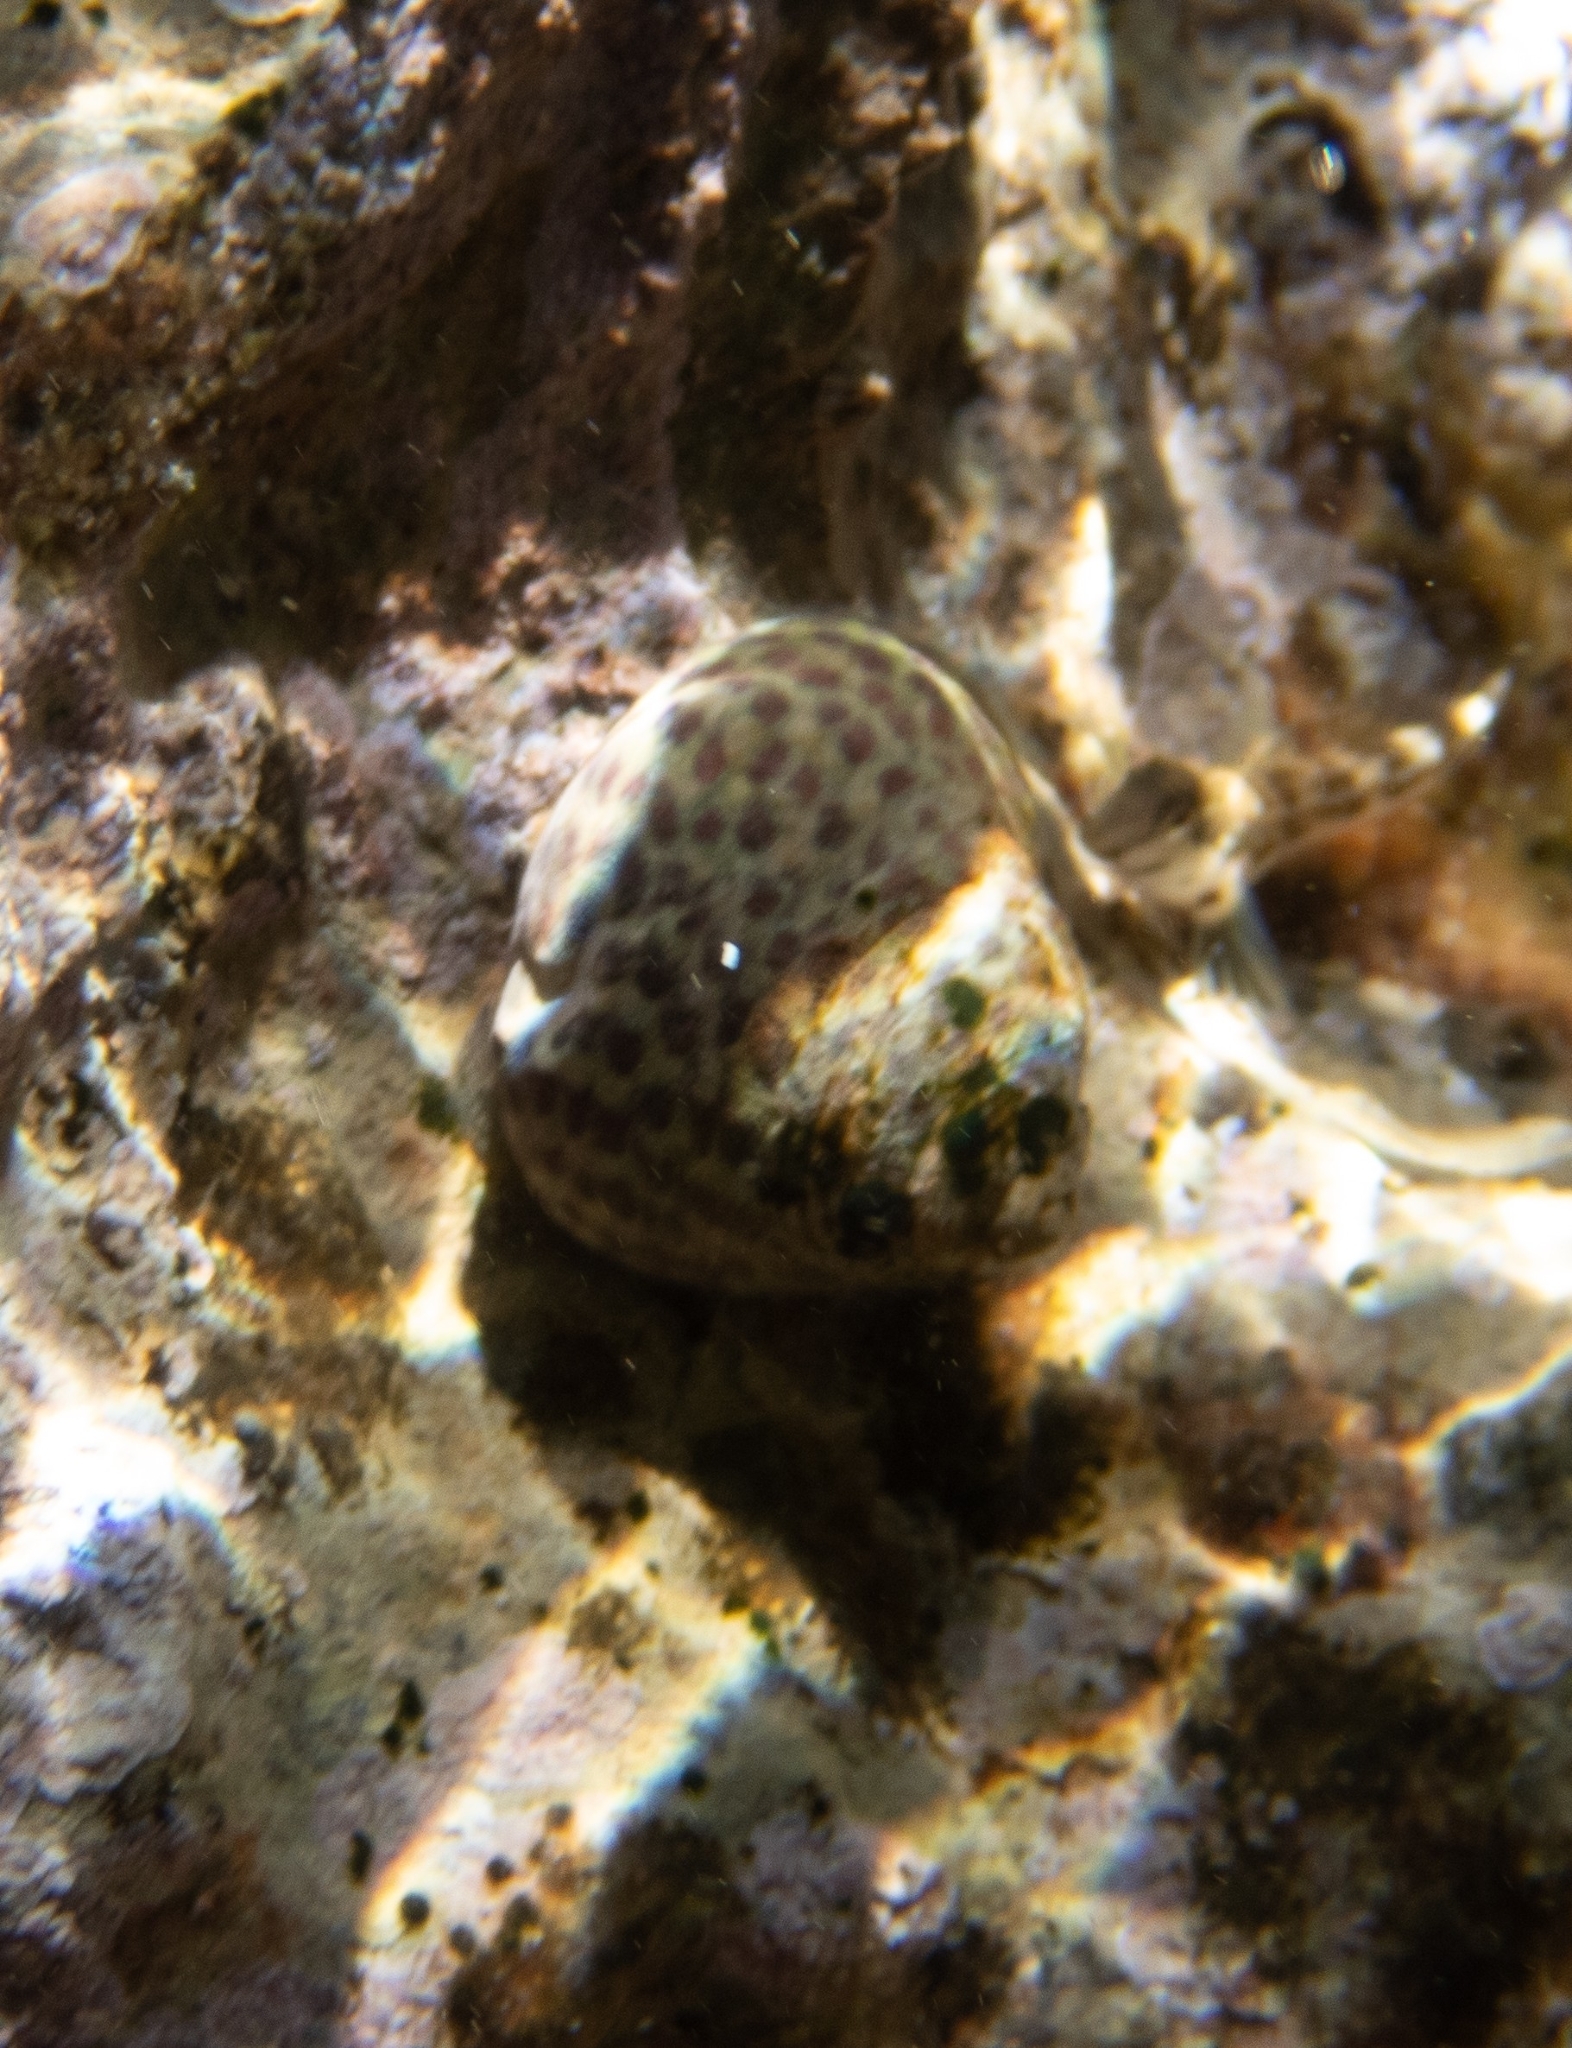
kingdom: Animalia
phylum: Mollusca
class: Gastropoda
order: Trochida
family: Trochidae
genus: Phorcus
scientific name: Phorcus turbinatus
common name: Turbinate monodont
